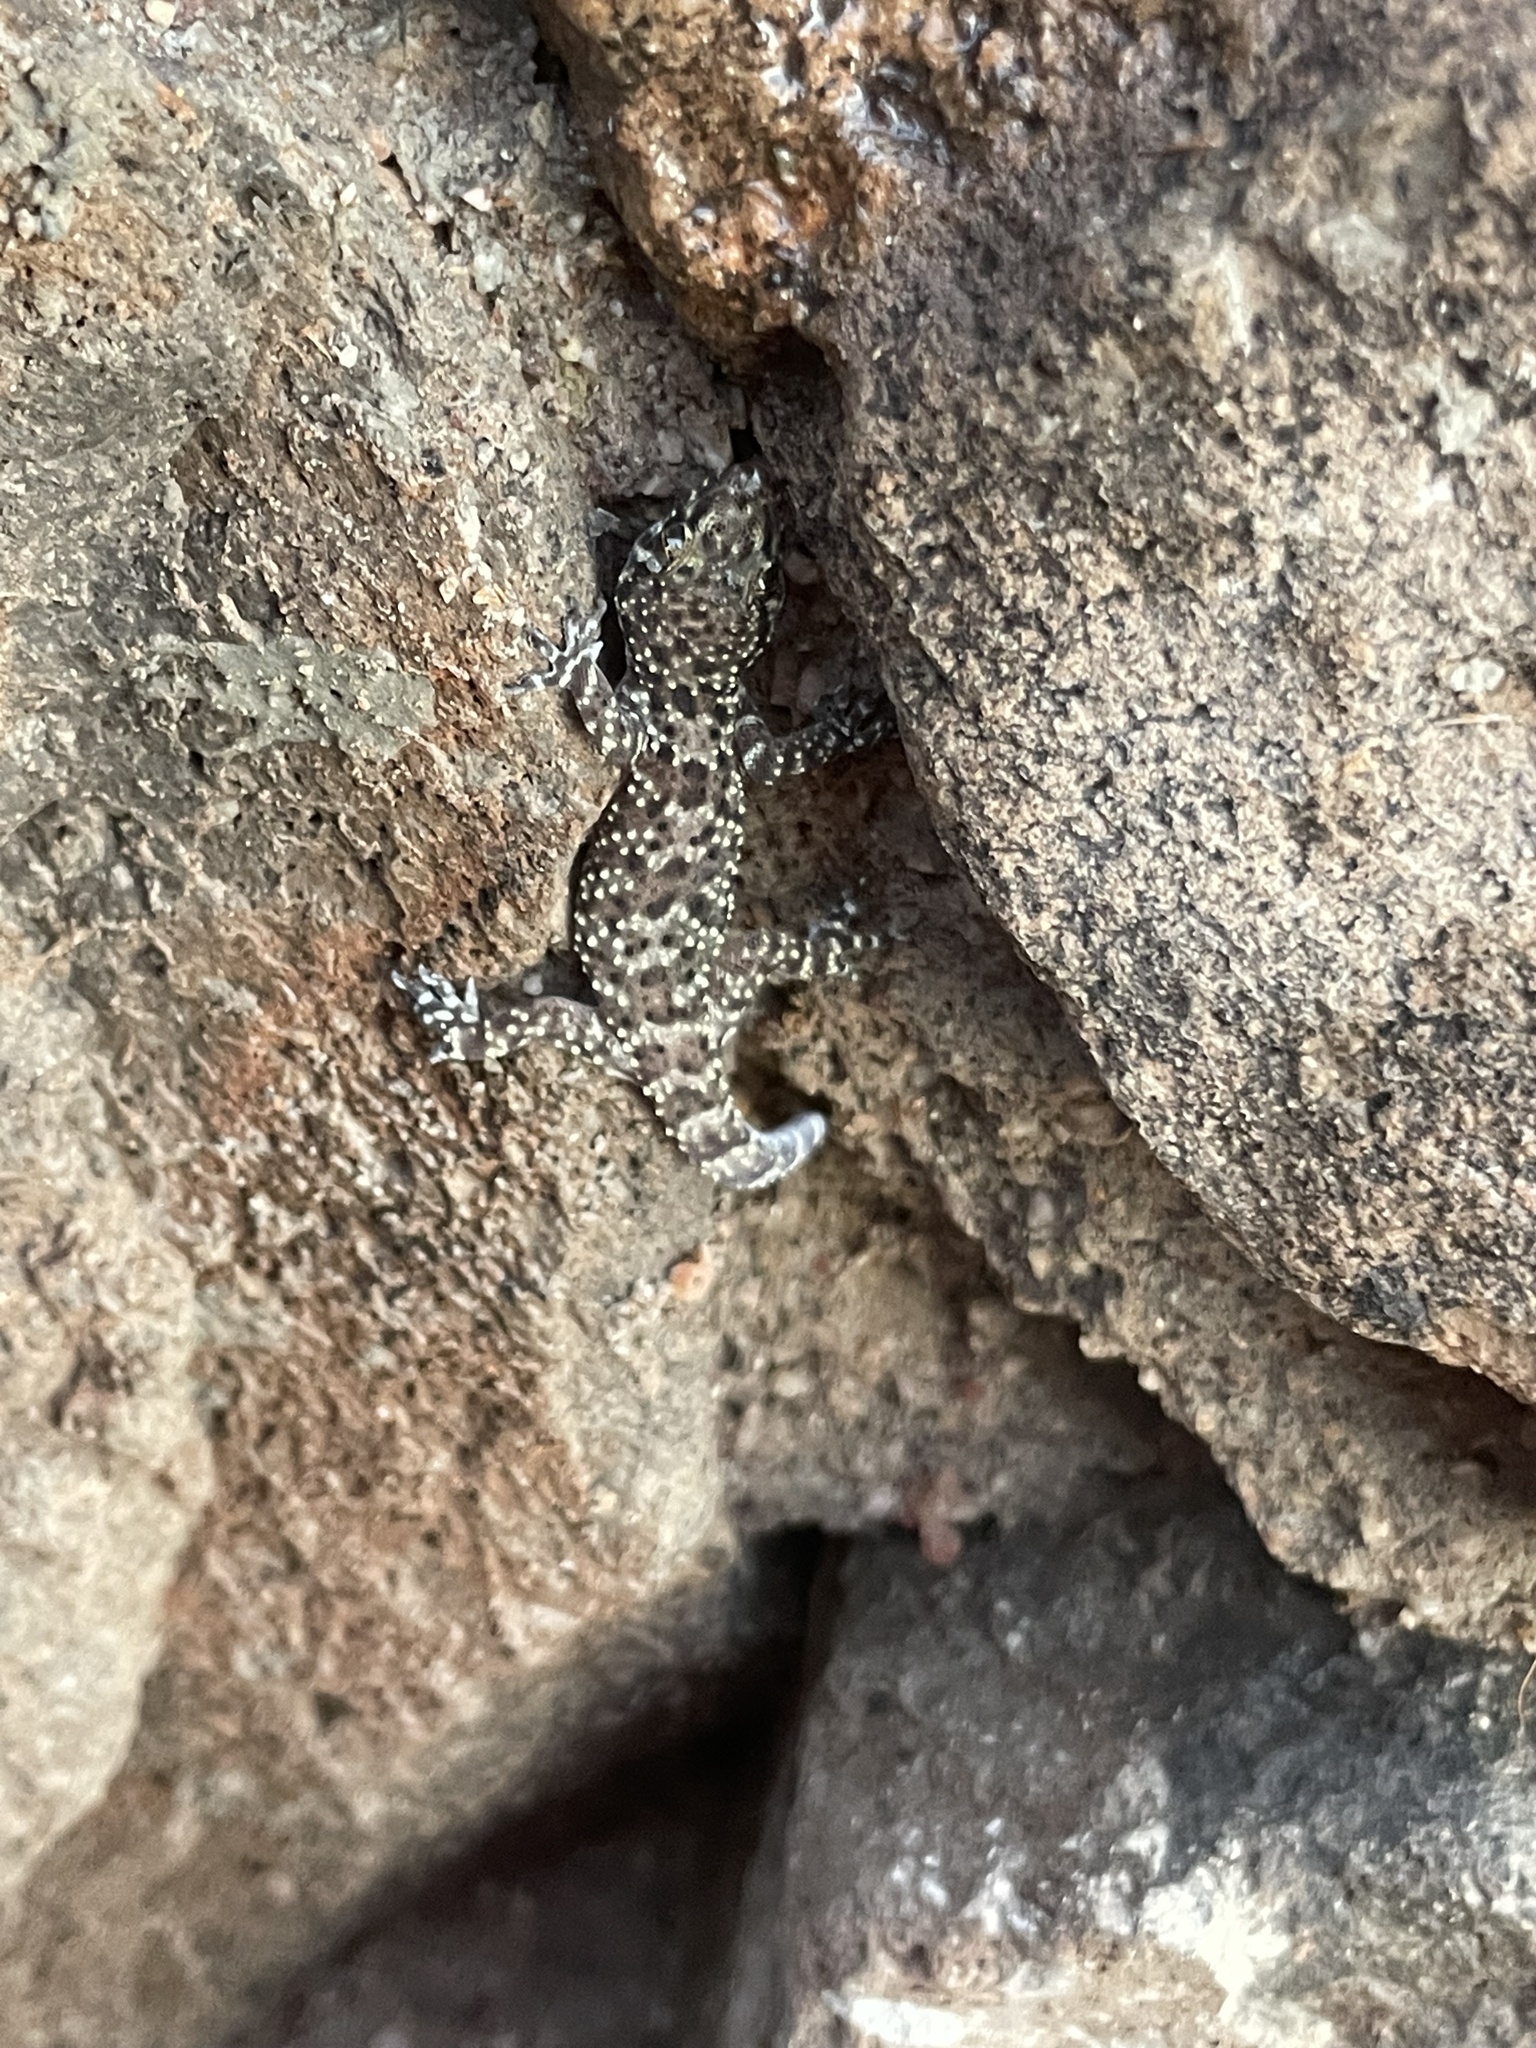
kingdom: Animalia
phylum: Chordata
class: Squamata
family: Gekkonidae
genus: Hemidactylus
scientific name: Hemidactylus turcicus
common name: Turkish gecko
